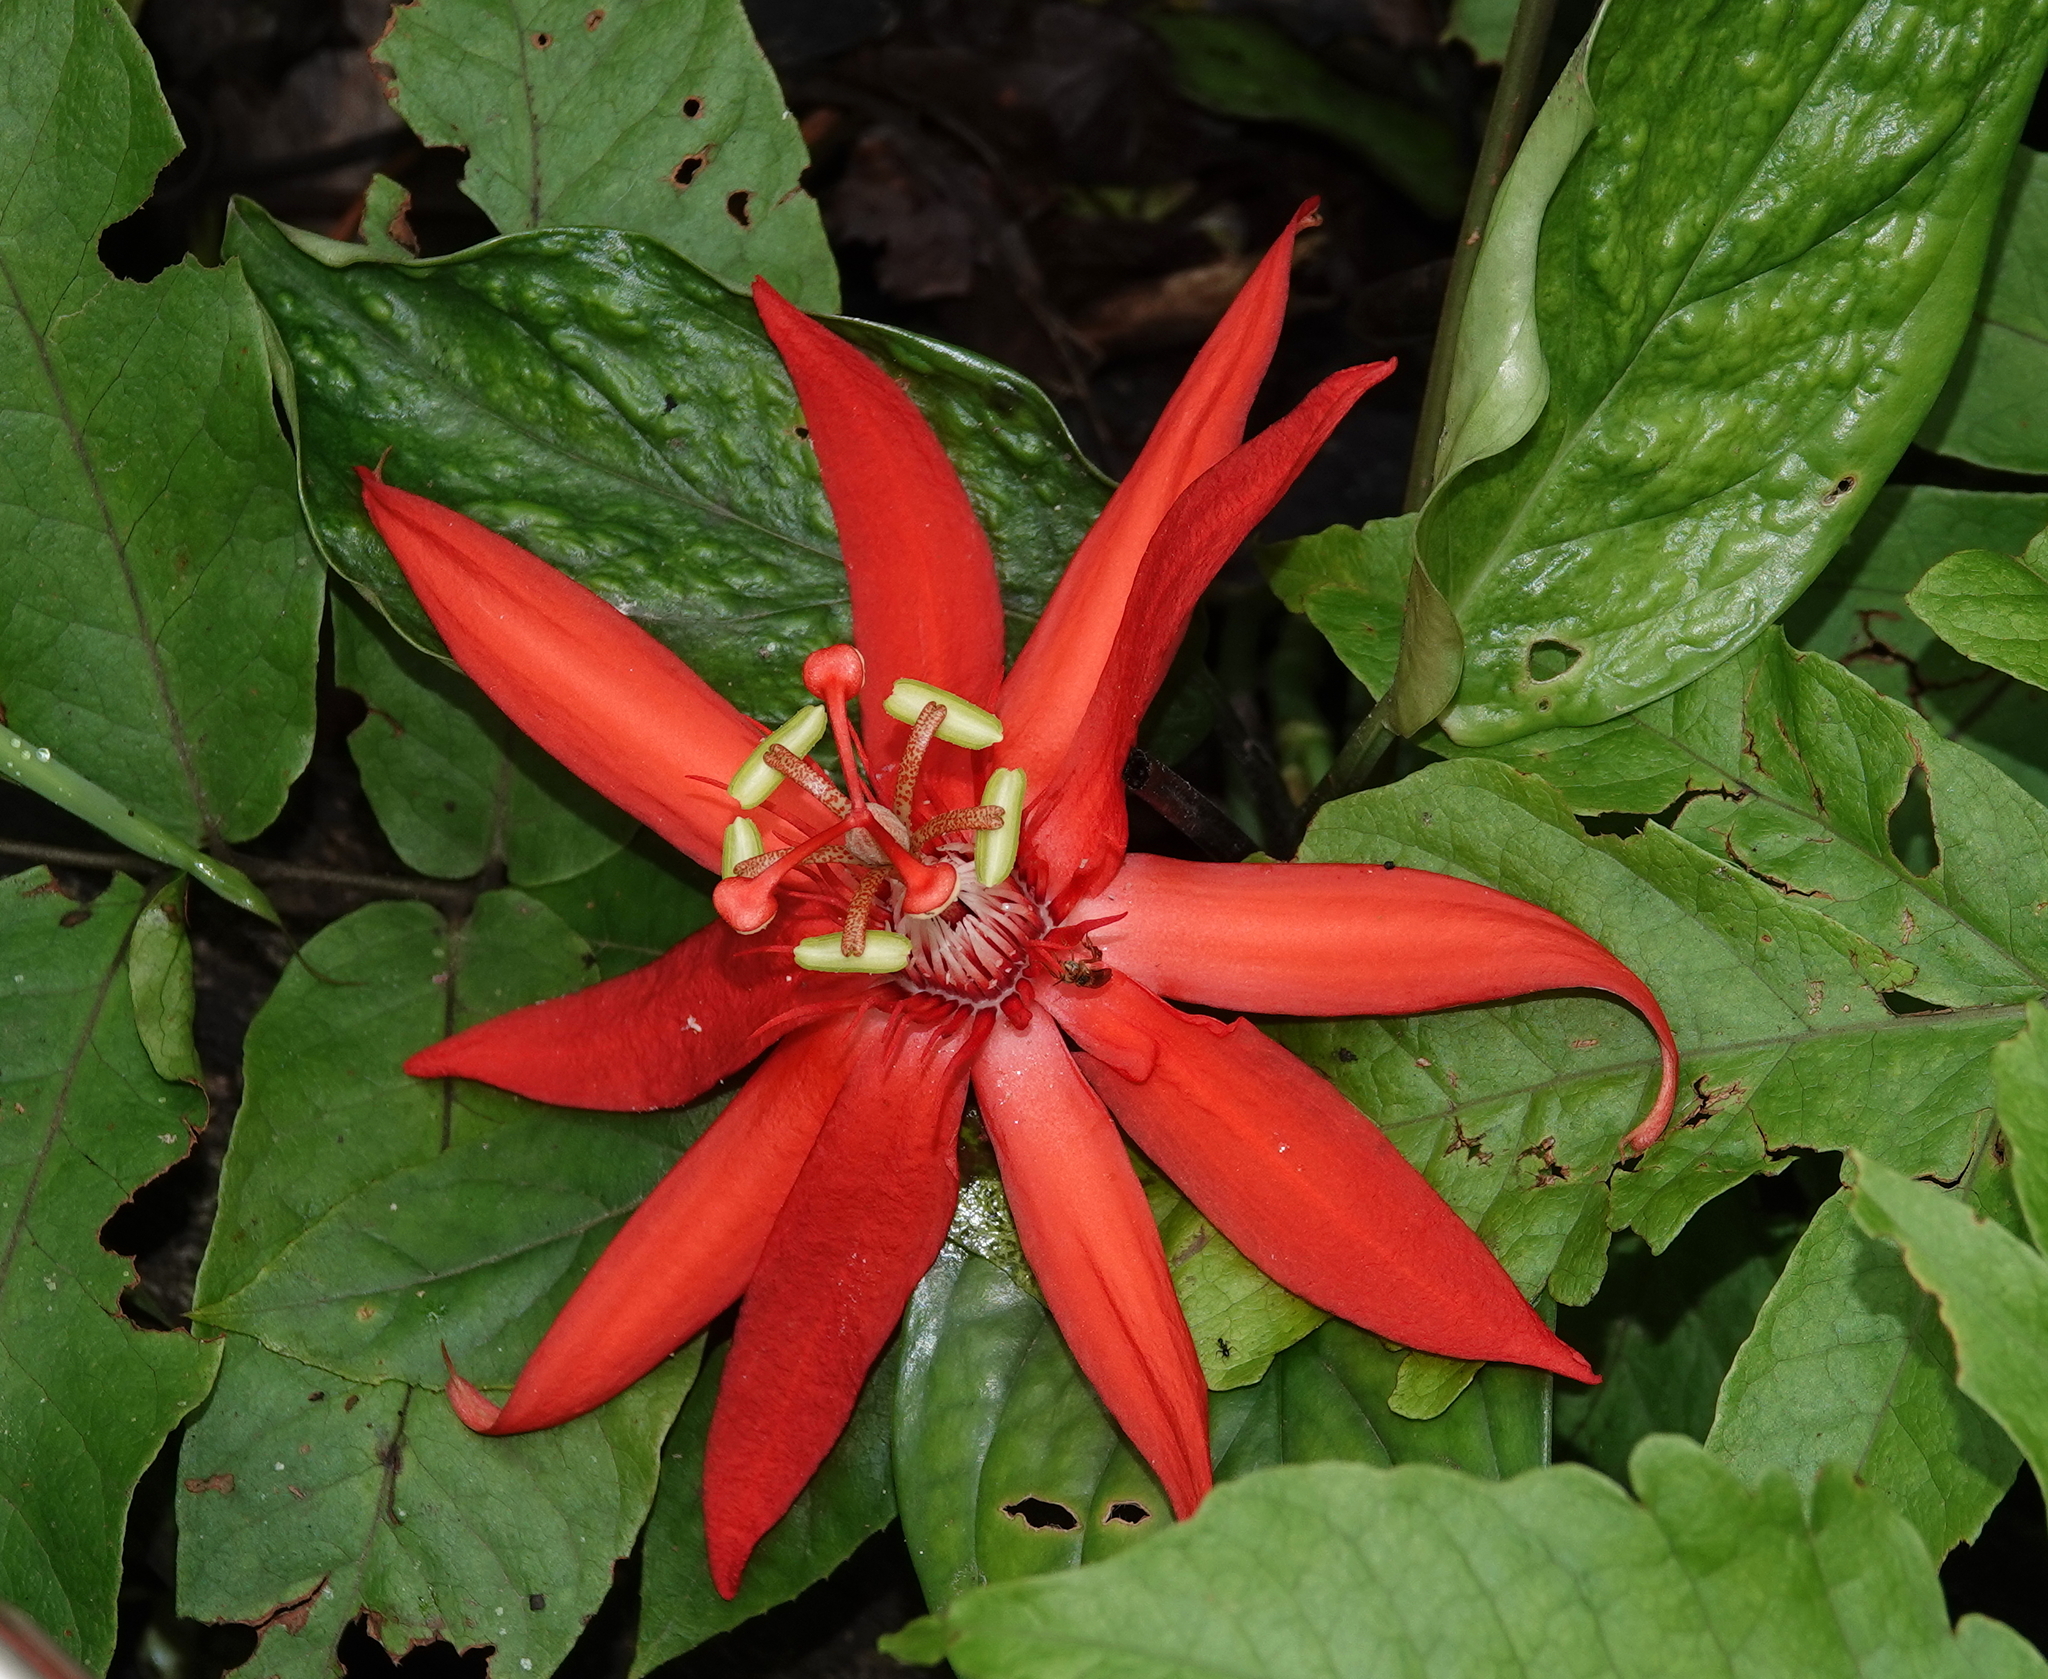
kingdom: Plantae
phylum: Tracheophyta
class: Magnoliopsida
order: Malpighiales
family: Passifloraceae
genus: Passiflora
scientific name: Passiflora vitifolia
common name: Perfumed passionflower
